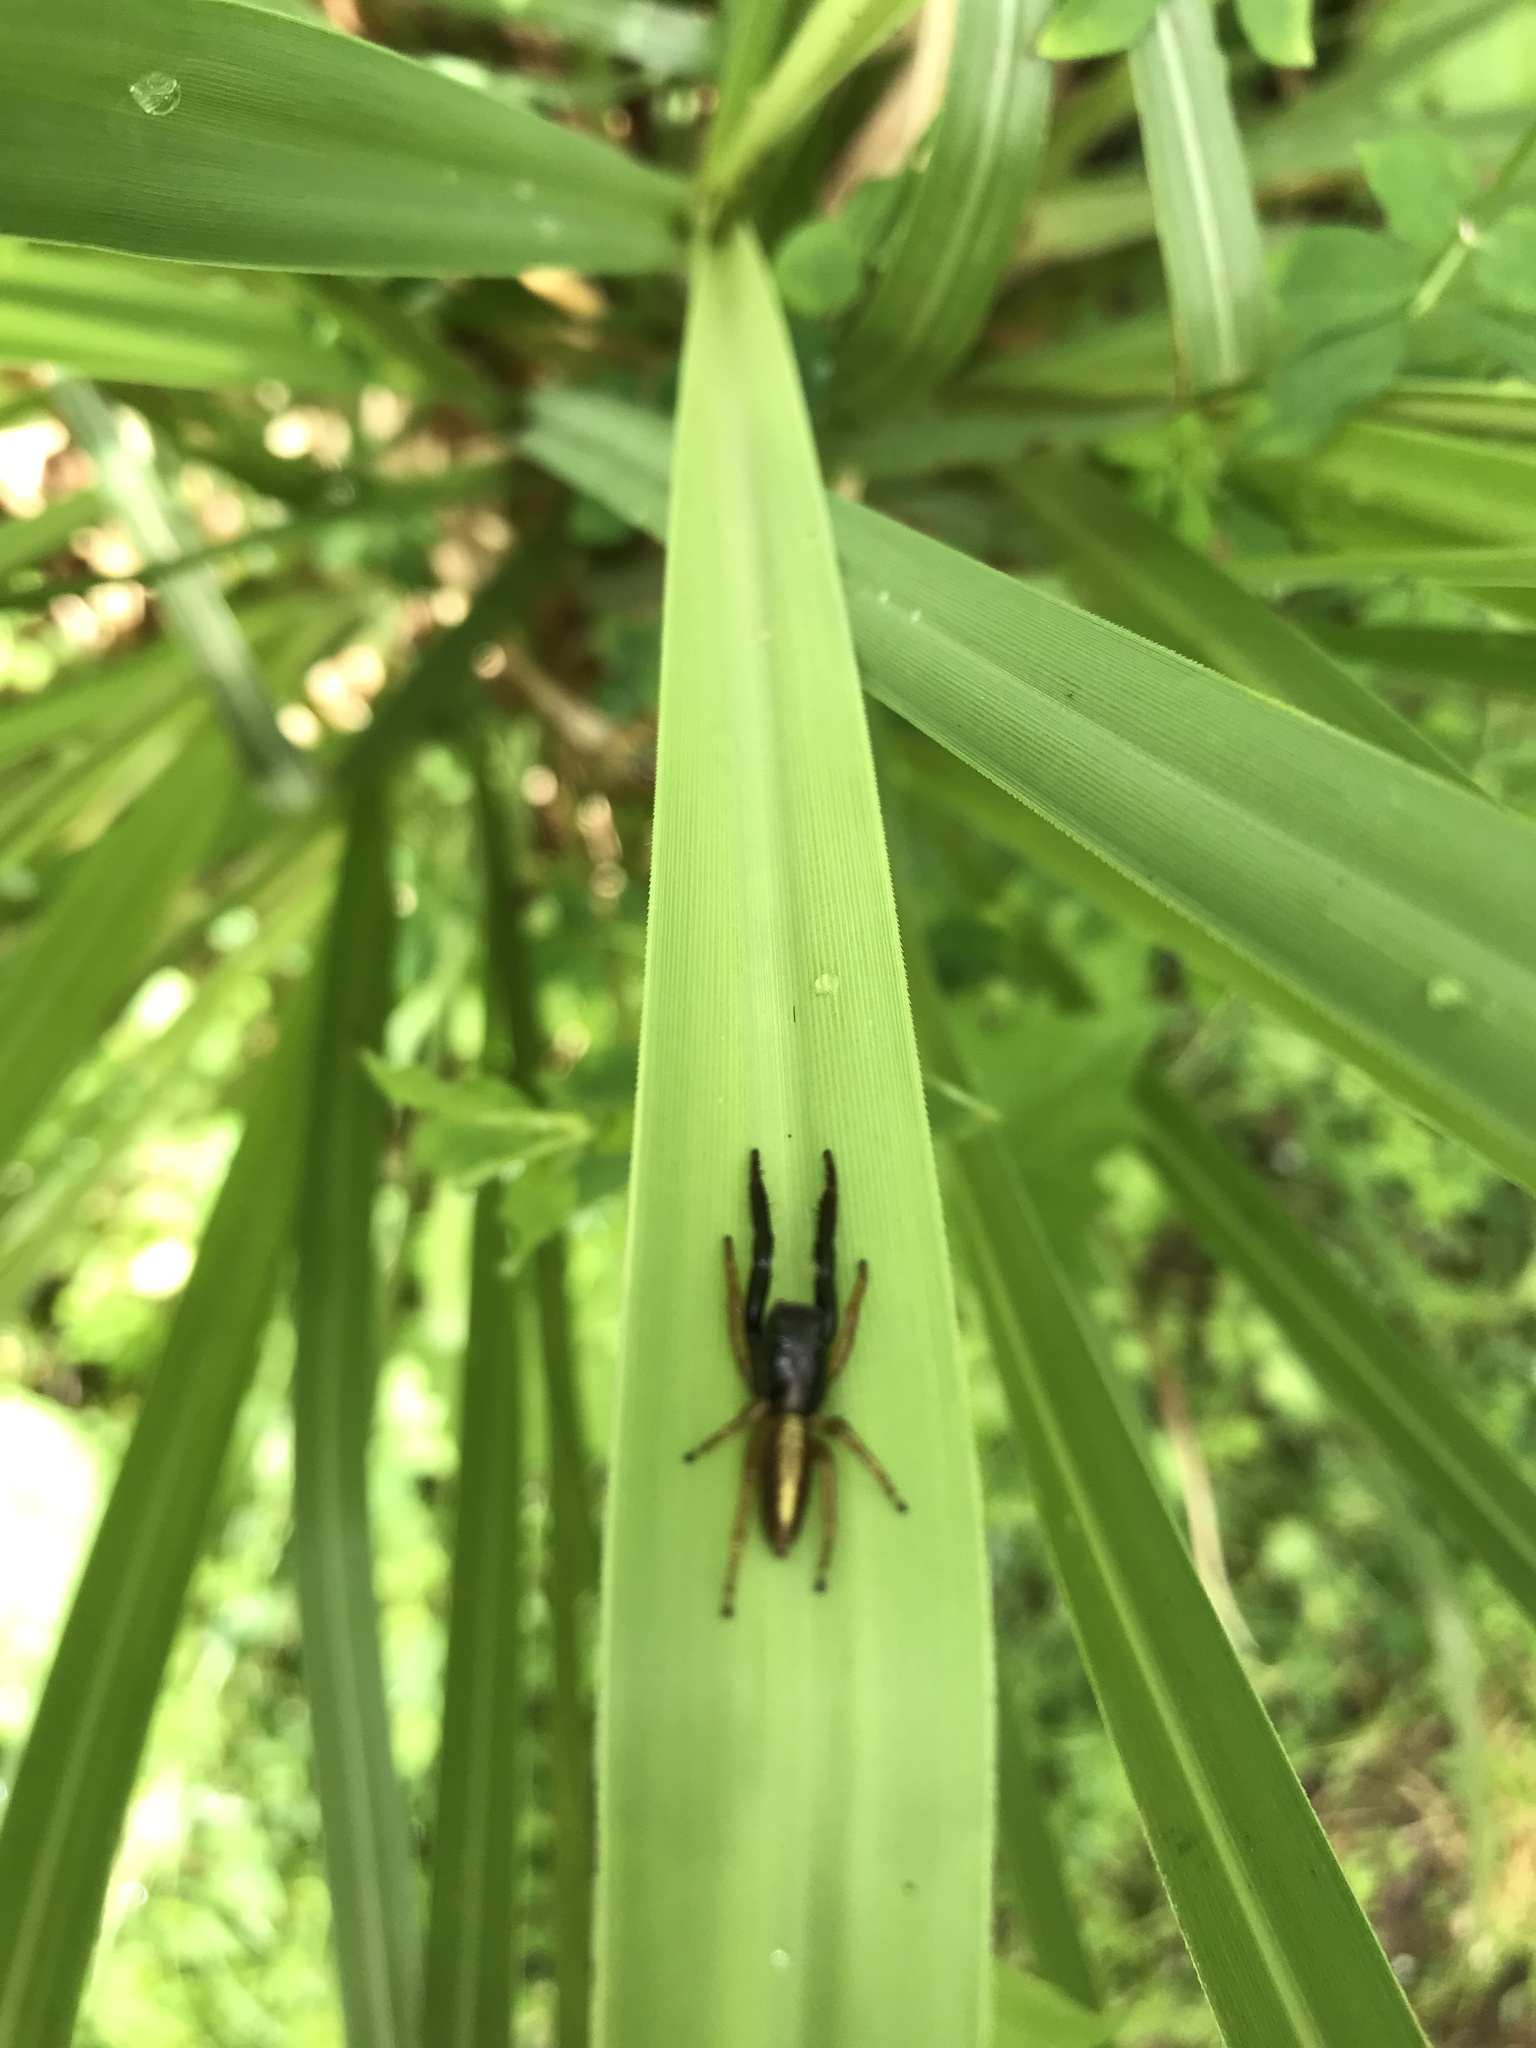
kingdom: Animalia
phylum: Arthropoda
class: Arachnida
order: Araneae
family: Salticidae
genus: Trite
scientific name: Trite planiceps
